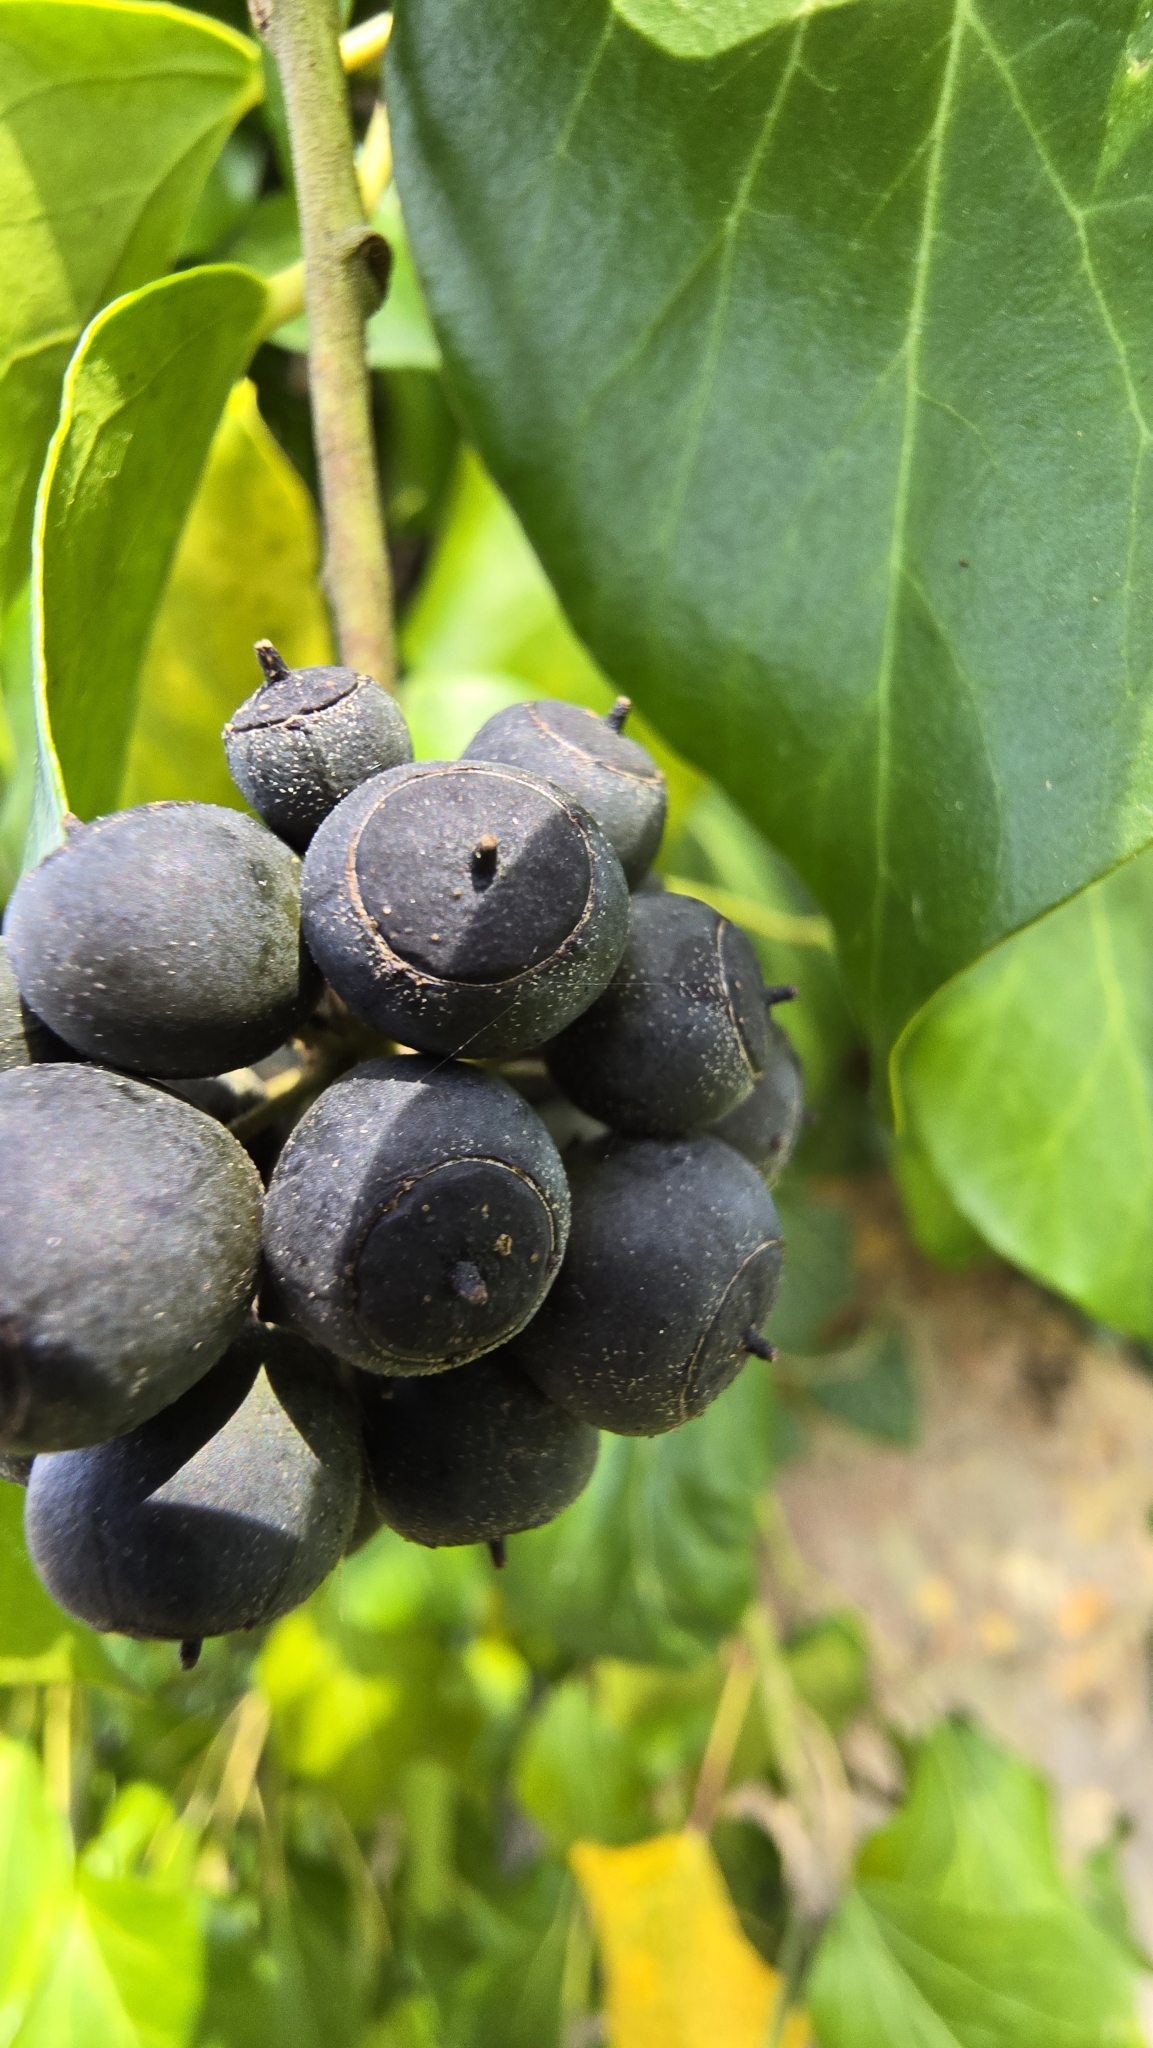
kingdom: Plantae
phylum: Tracheophyta
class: Magnoliopsida
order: Apiales
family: Araliaceae
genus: Hedera
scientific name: Hedera helix
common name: Ivy
